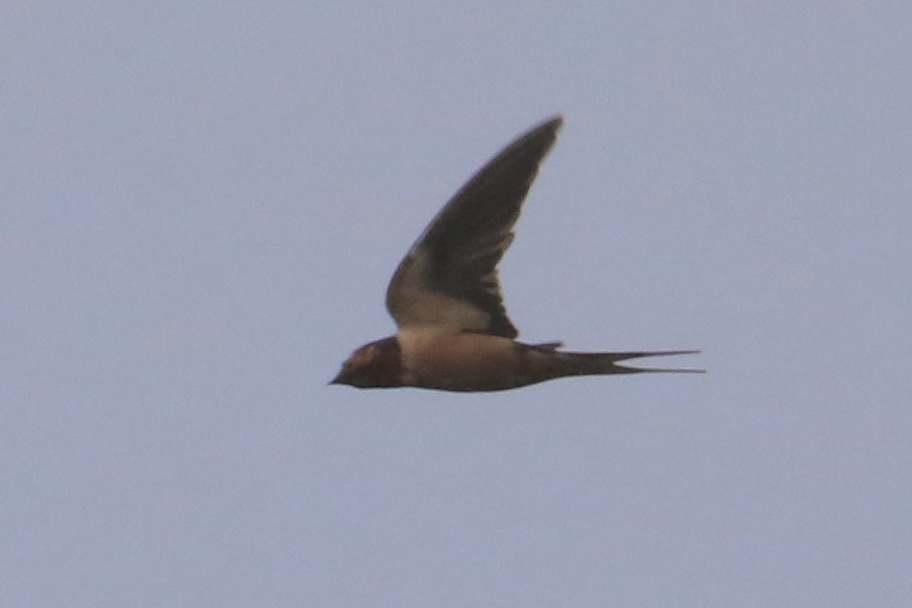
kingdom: Animalia
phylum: Chordata
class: Aves
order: Passeriformes
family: Hirundinidae
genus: Hirundo
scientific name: Hirundo rustica
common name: Barn swallow
